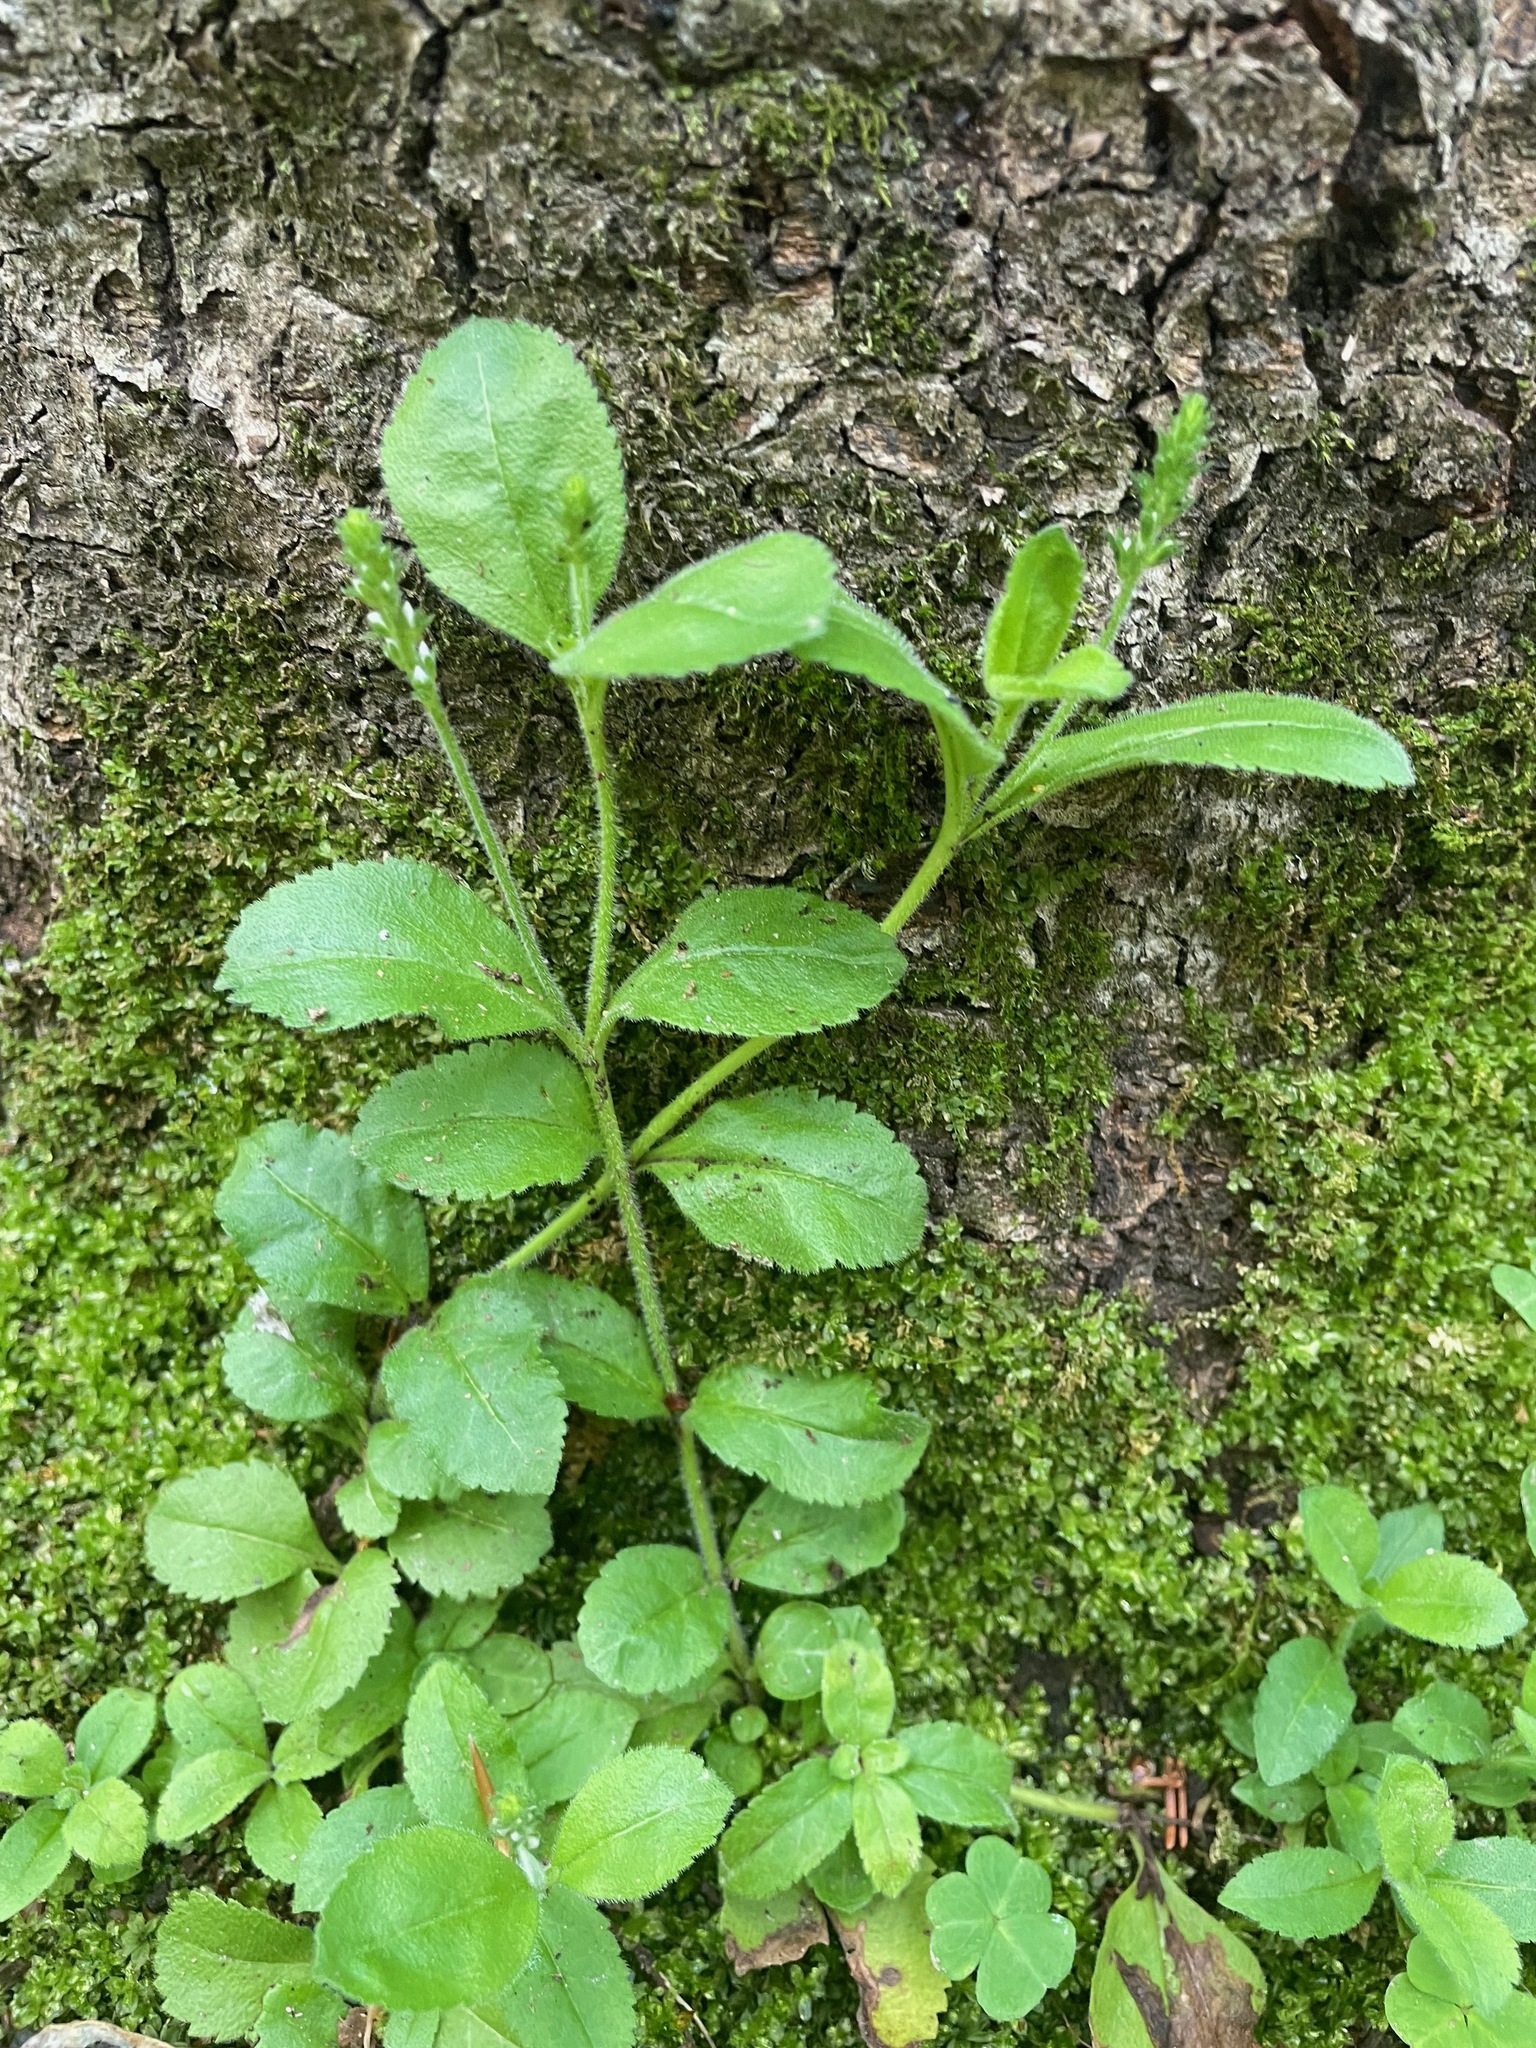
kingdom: Plantae
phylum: Tracheophyta
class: Magnoliopsida
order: Lamiales
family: Plantaginaceae
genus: Veronica
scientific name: Veronica officinalis
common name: Common speedwell
